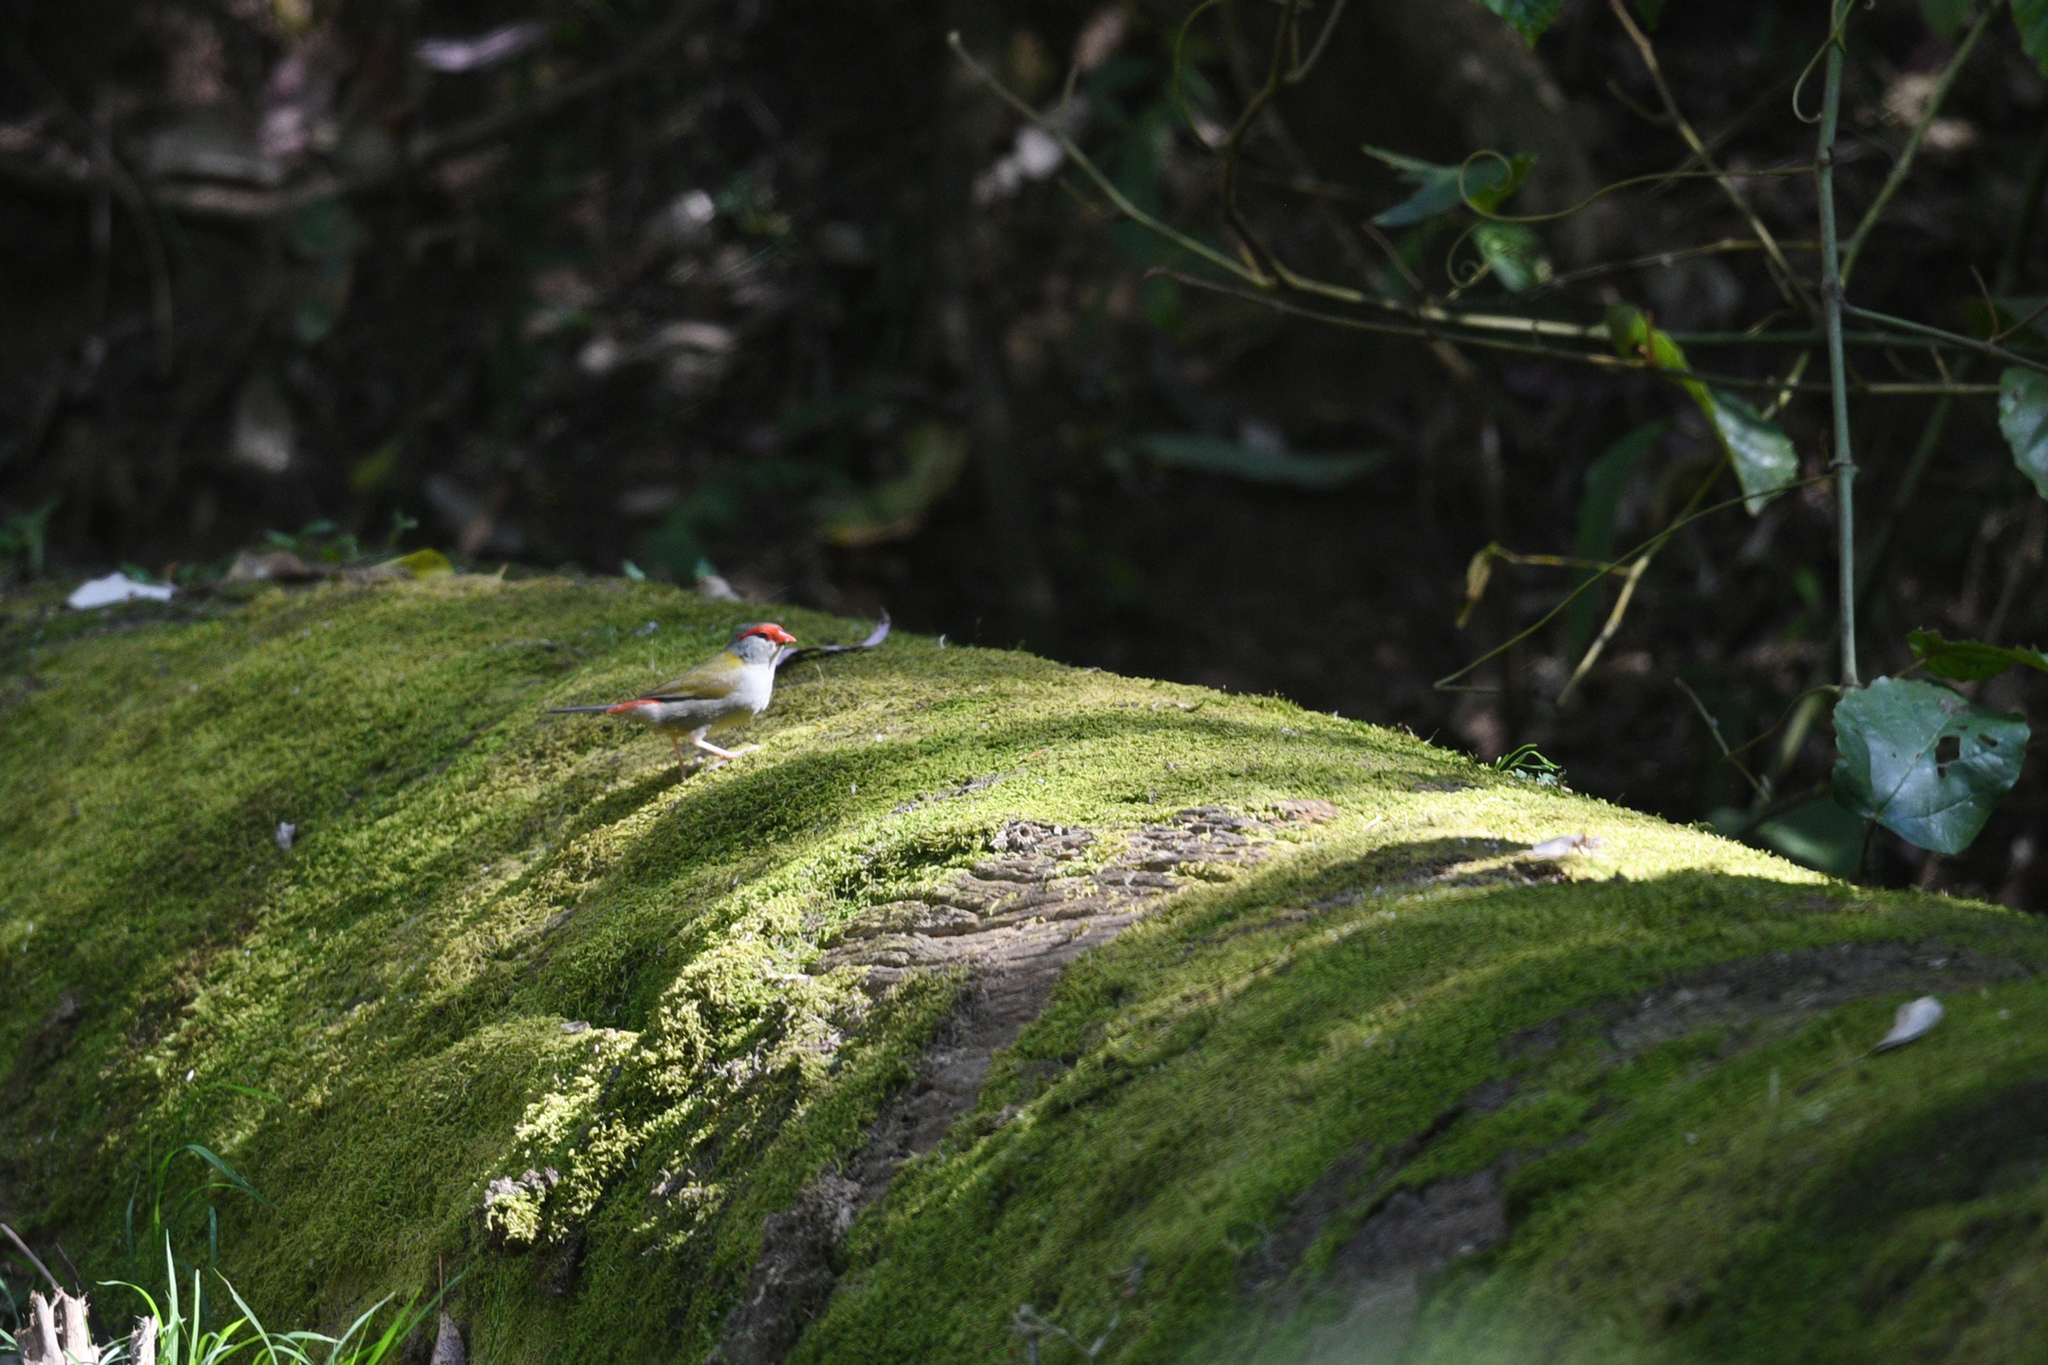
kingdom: Animalia
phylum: Chordata
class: Aves
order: Passeriformes
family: Estrildidae
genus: Neochmia
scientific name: Neochmia temporalis
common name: Red-browed finch
